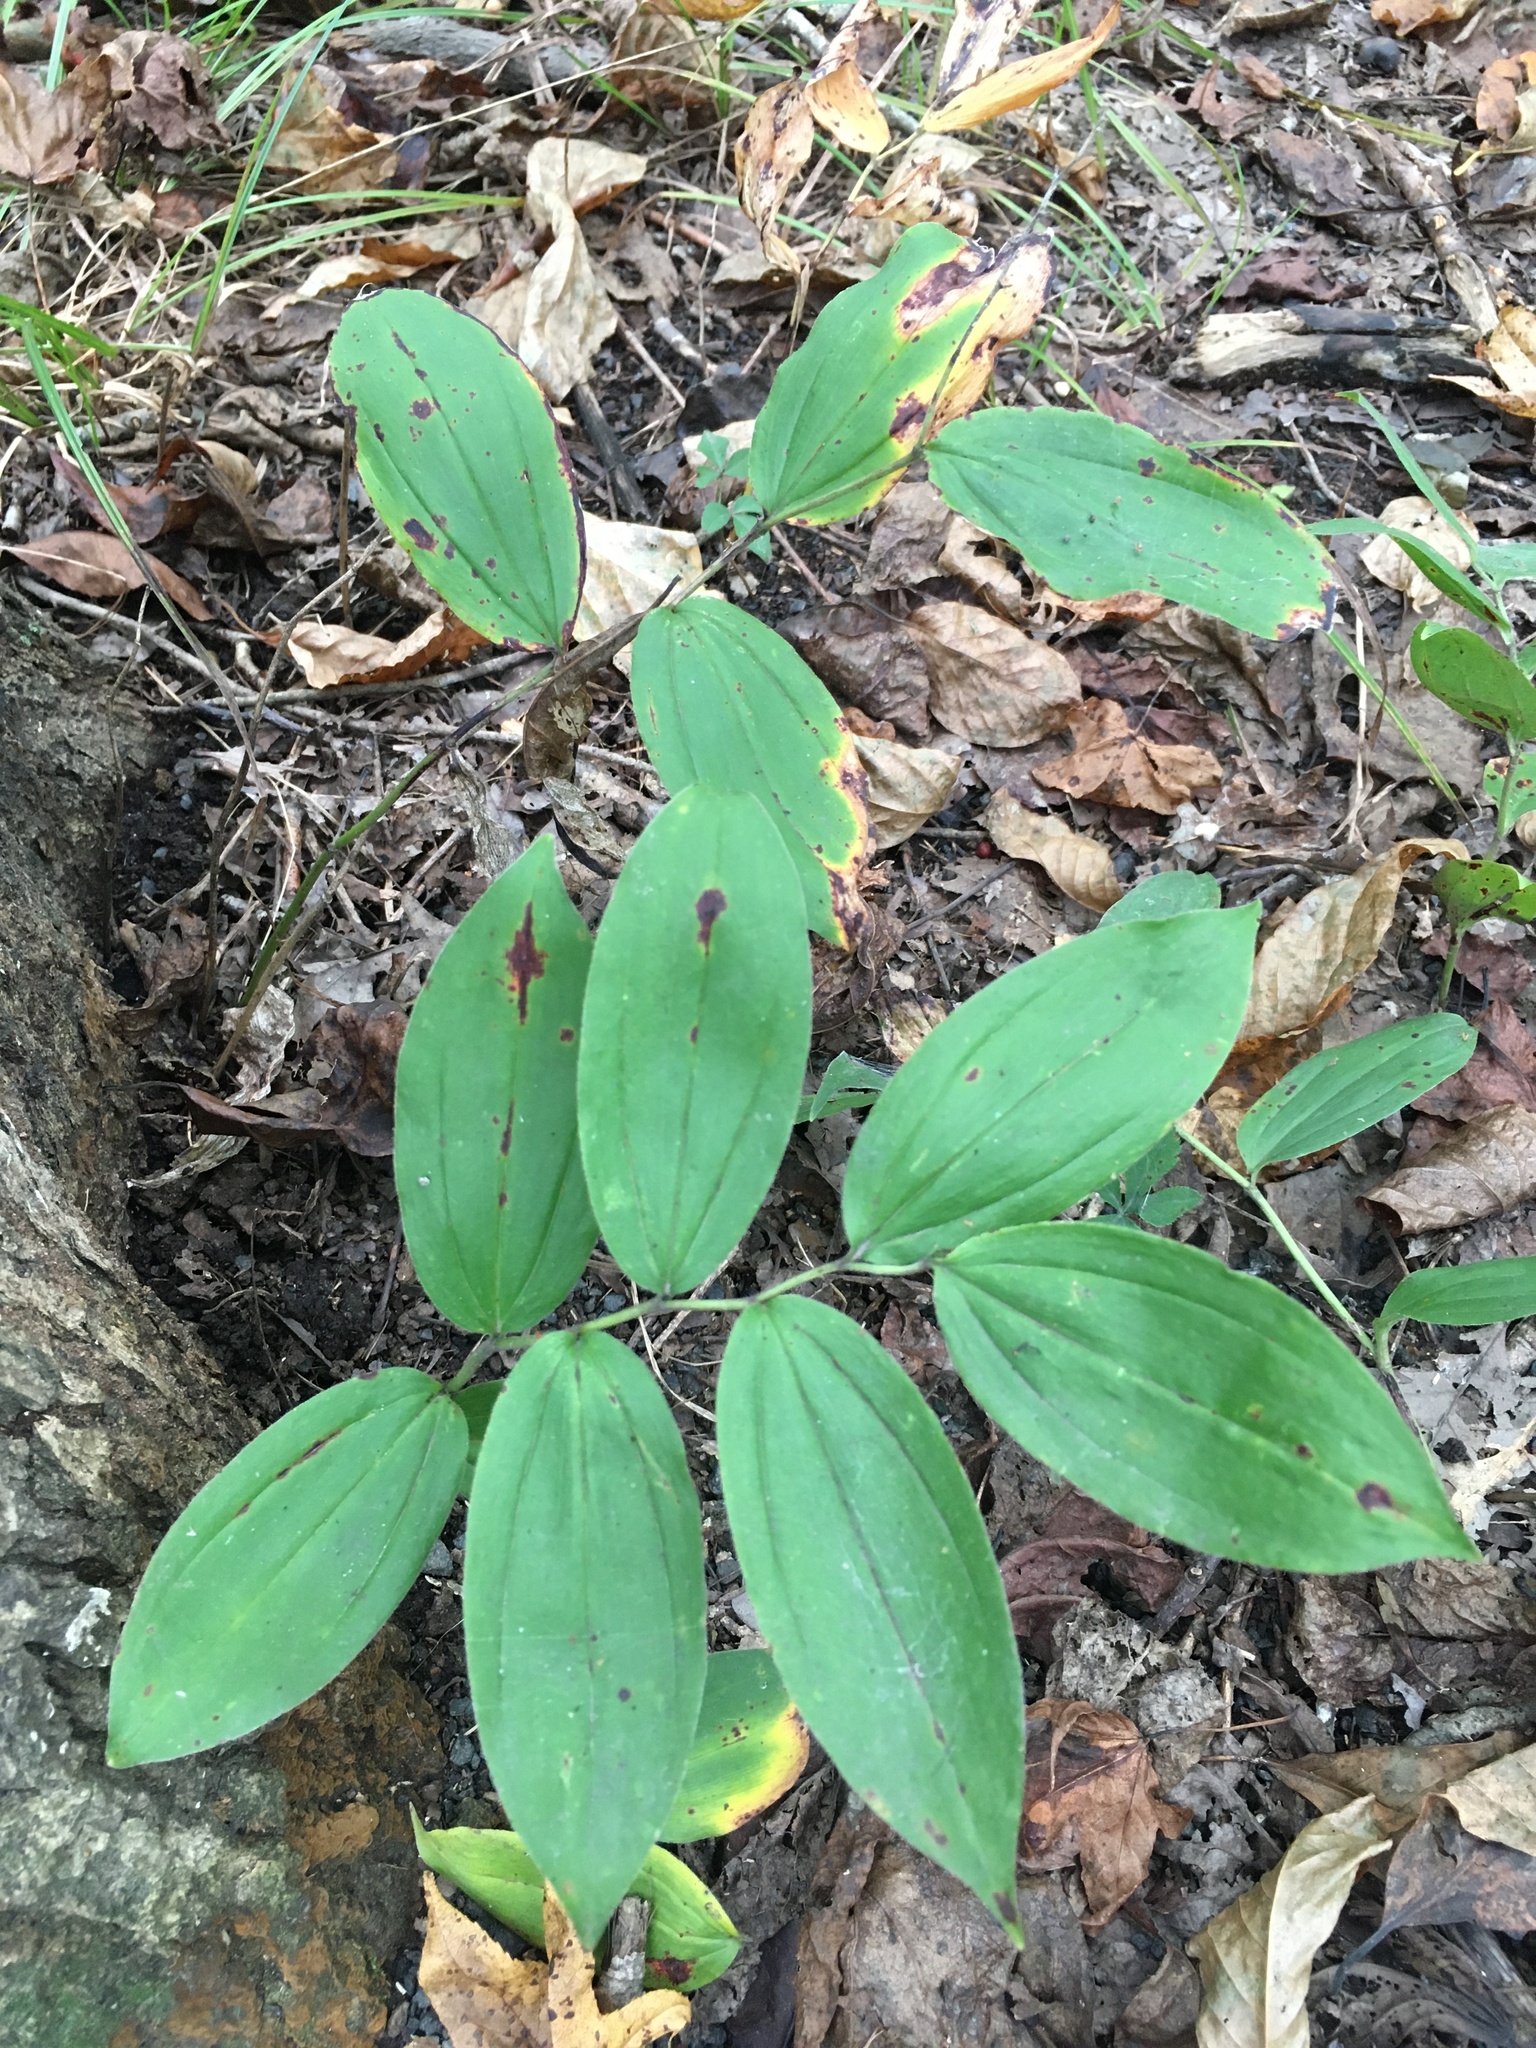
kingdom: Plantae
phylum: Tracheophyta
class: Liliopsida
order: Asparagales
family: Asparagaceae
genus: Maianthemum
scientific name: Maianthemum racemosum
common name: False spikenard
